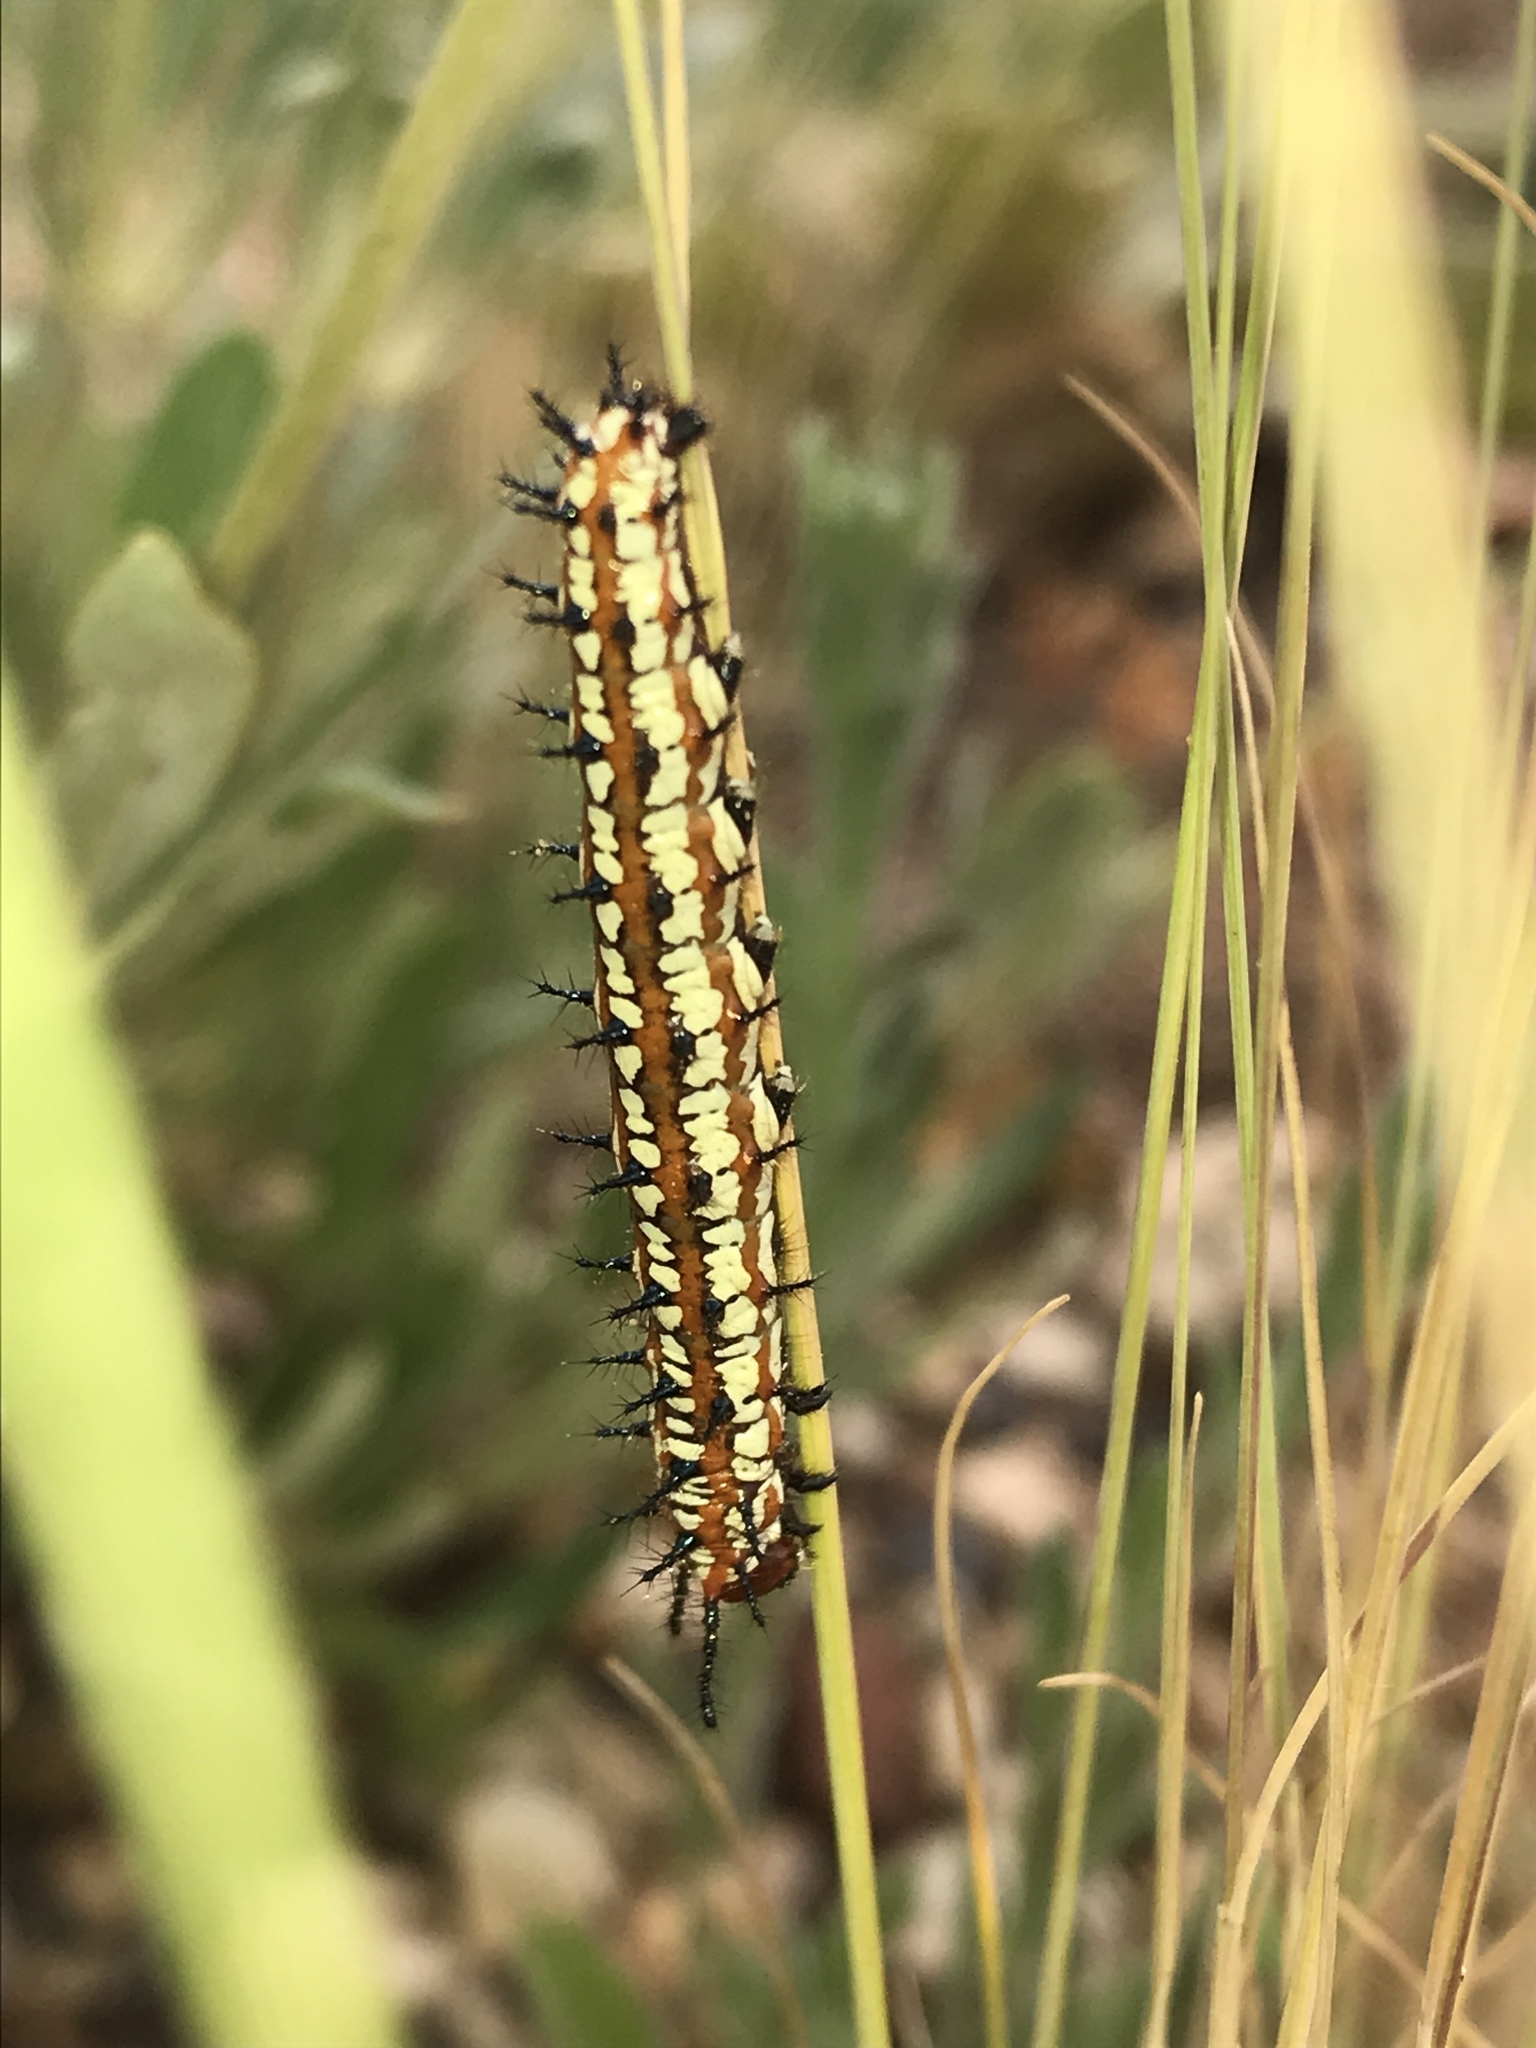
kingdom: Animalia
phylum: Arthropoda
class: Insecta
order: Lepidoptera
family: Nymphalidae
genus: Euptoieta
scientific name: Euptoieta claudia
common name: Variegated fritillary
